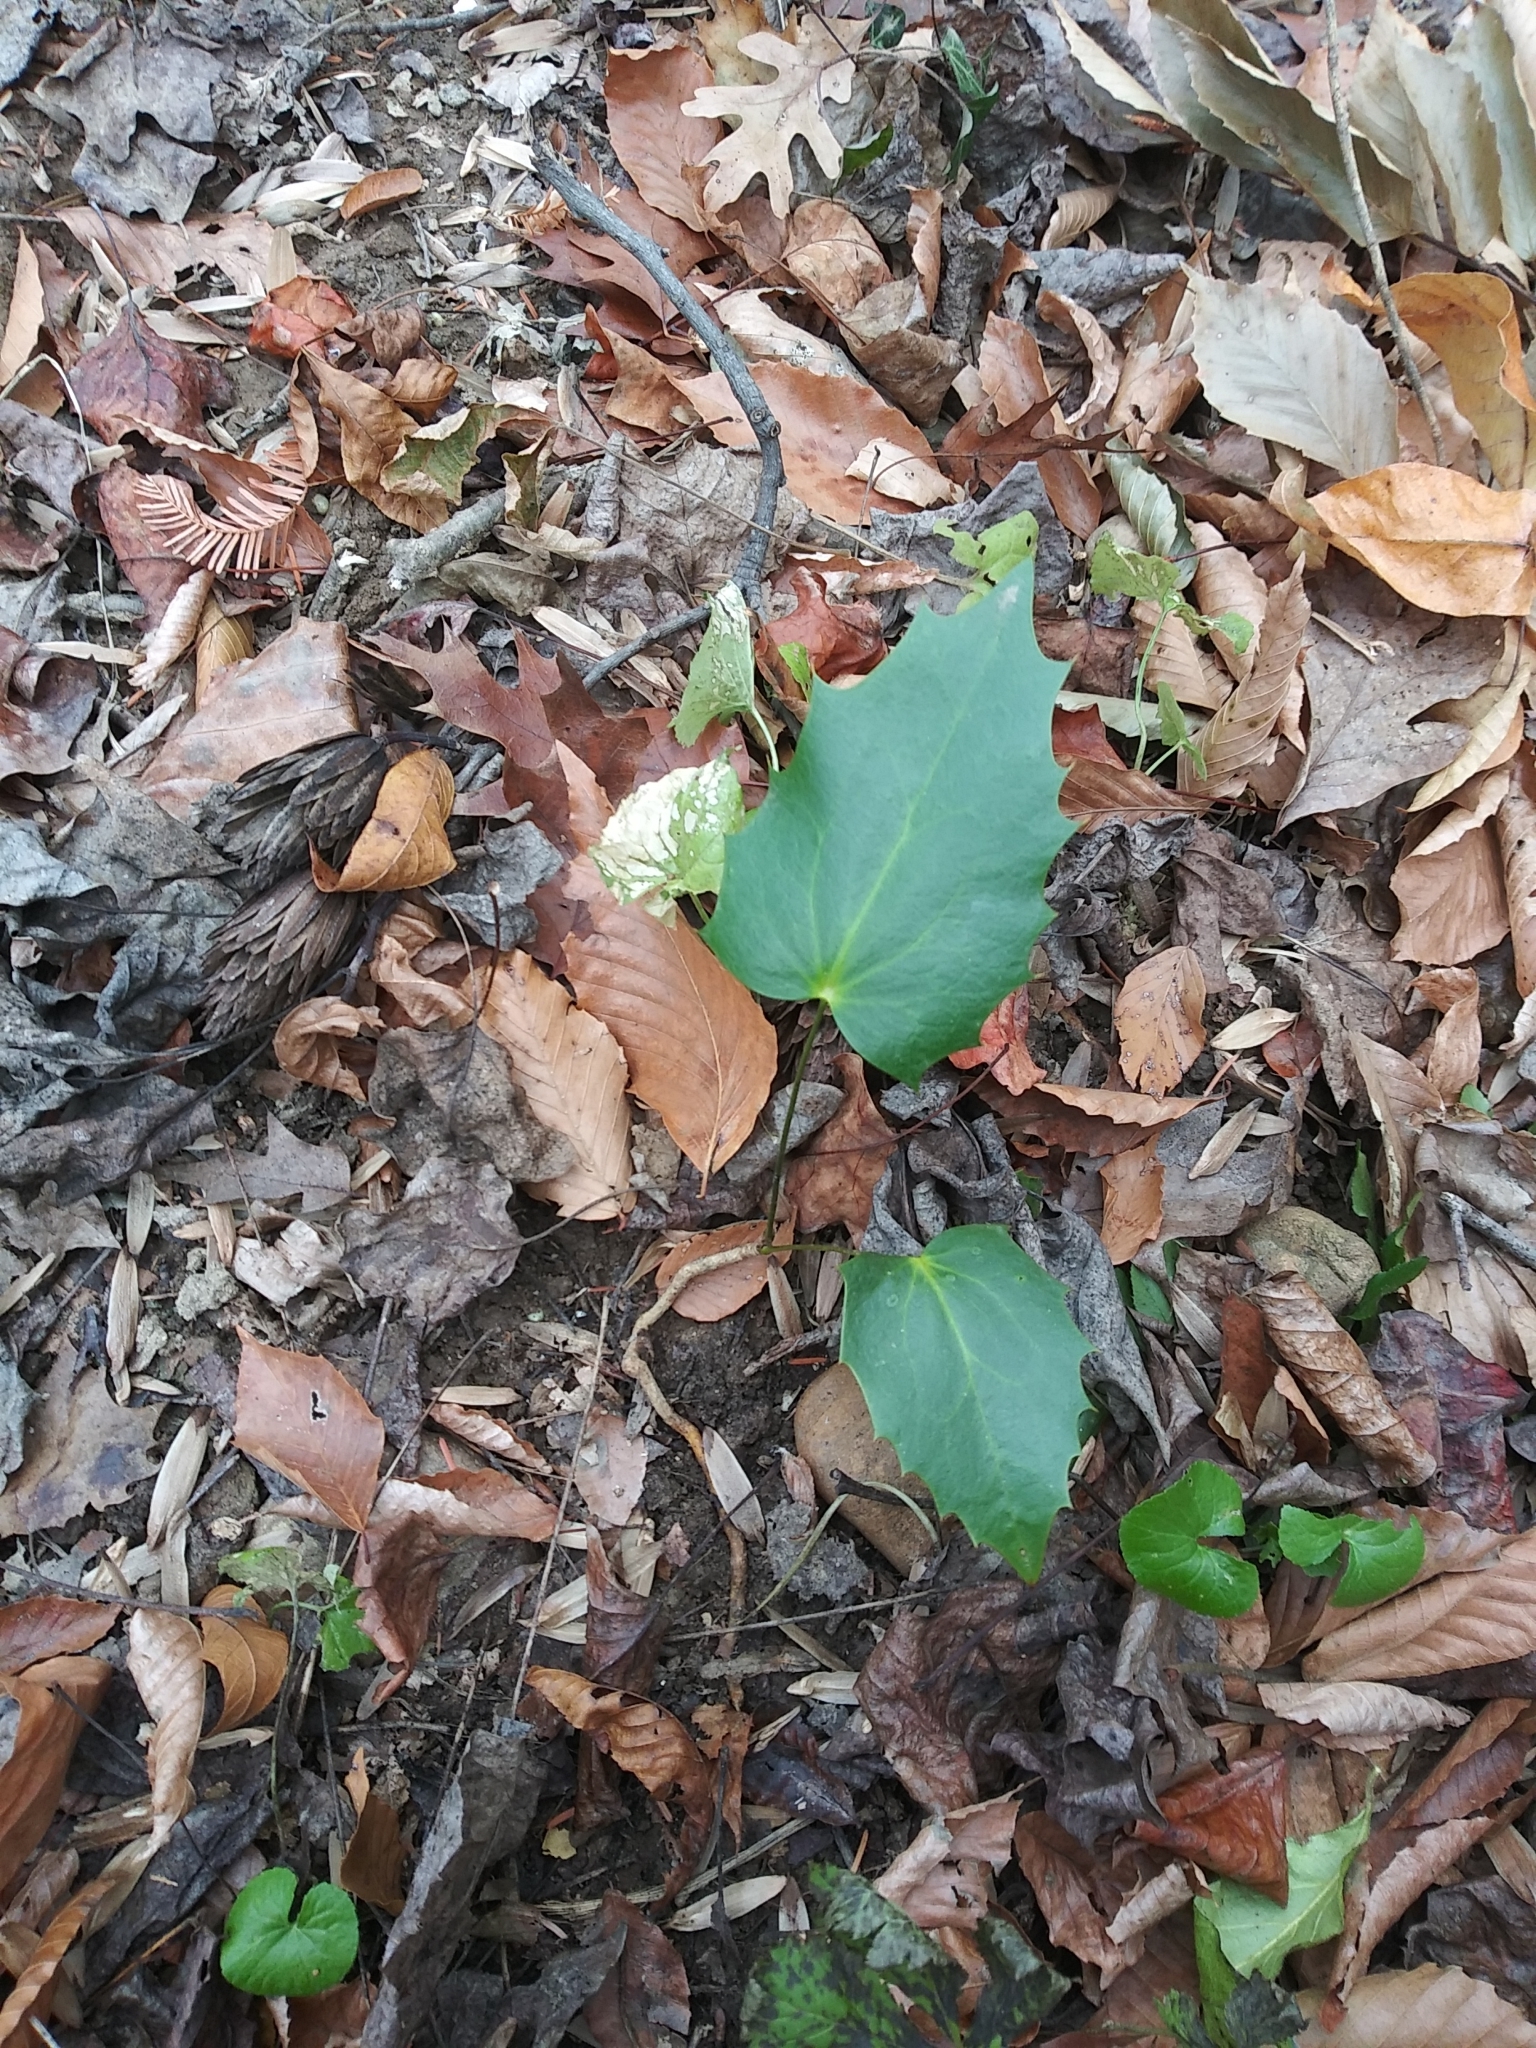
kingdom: Plantae
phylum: Tracheophyta
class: Magnoliopsida
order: Ranunculales
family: Berberidaceae
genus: Mahonia
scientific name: Mahonia bealei
